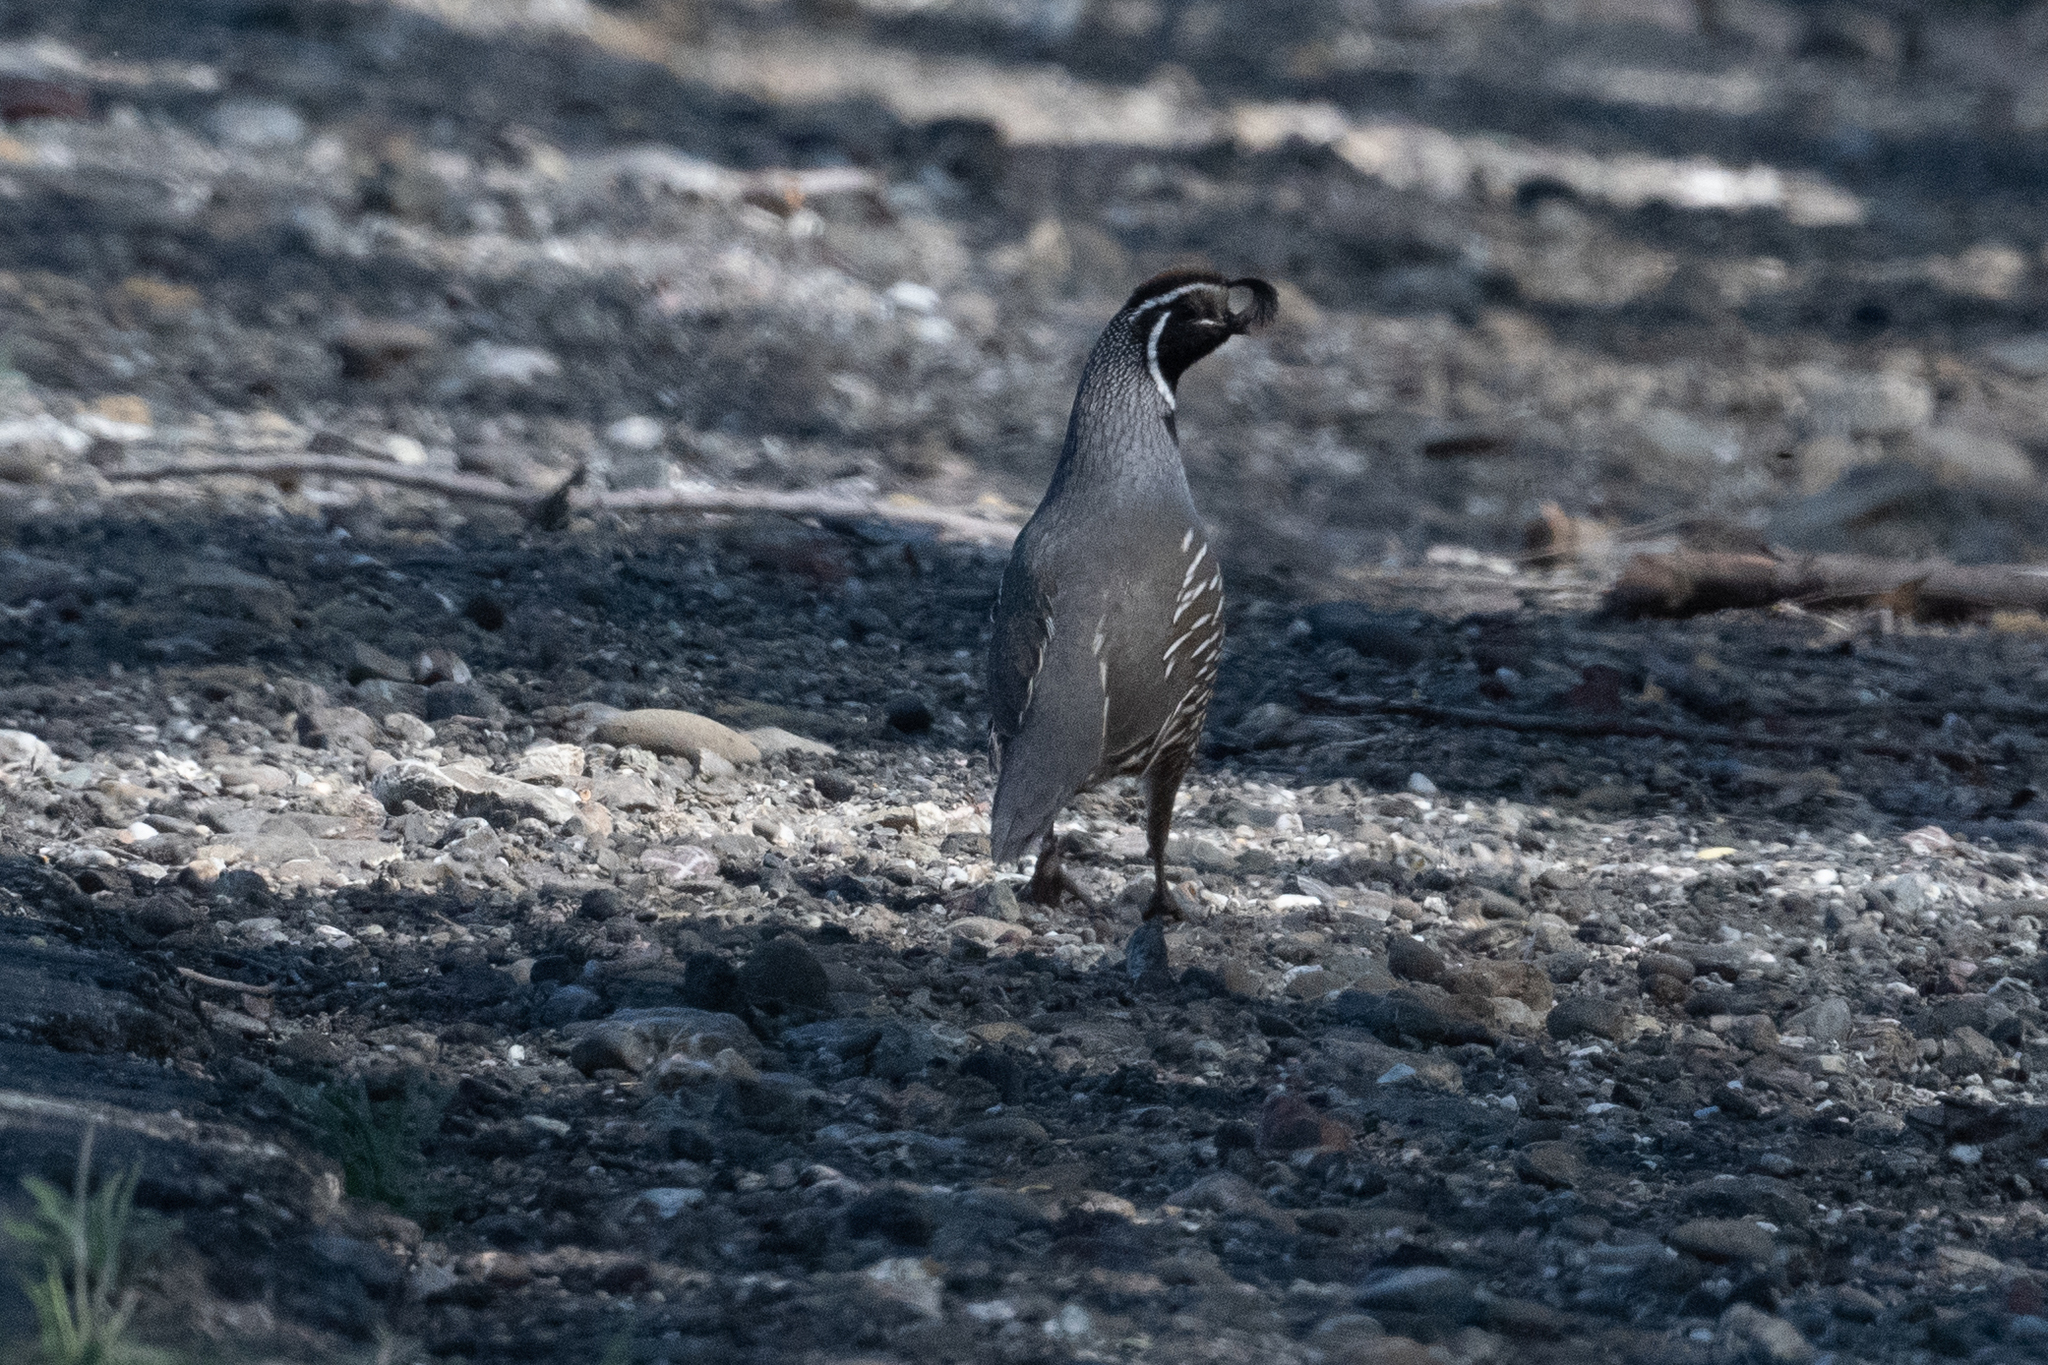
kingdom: Animalia
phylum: Chordata
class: Aves
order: Galliformes
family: Odontophoridae
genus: Callipepla
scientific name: Callipepla californica
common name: California quail
